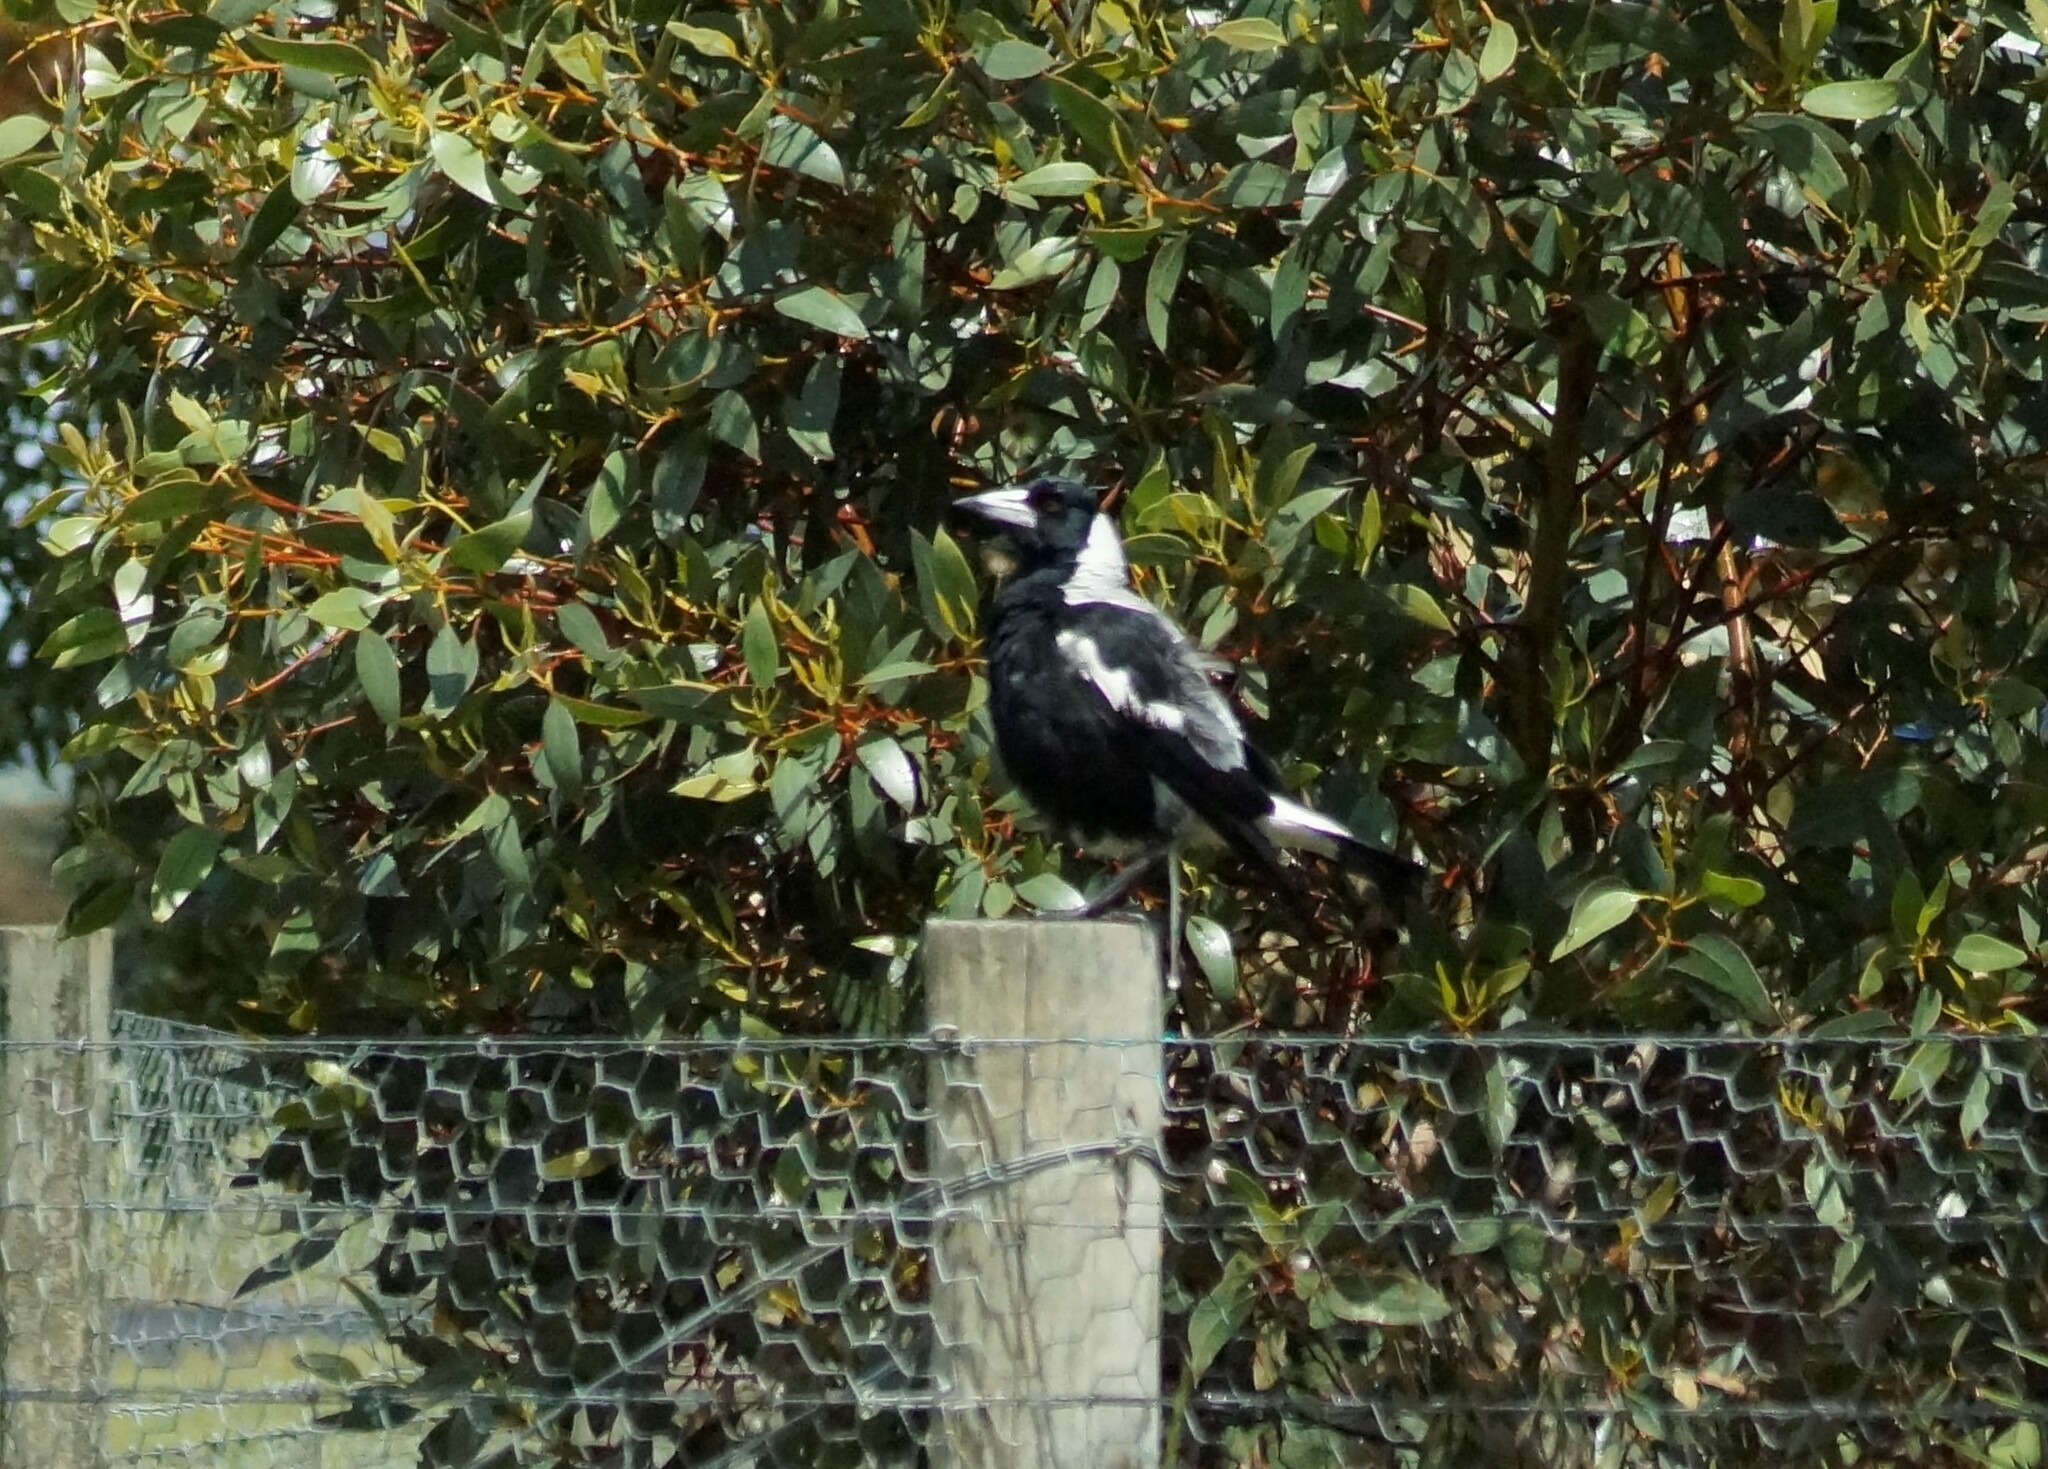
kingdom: Animalia
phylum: Chordata
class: Aves
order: Passeriformes
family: Cracticidae
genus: Gymnorhina
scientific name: Gymnorhina tibicen
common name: Australian magpie
